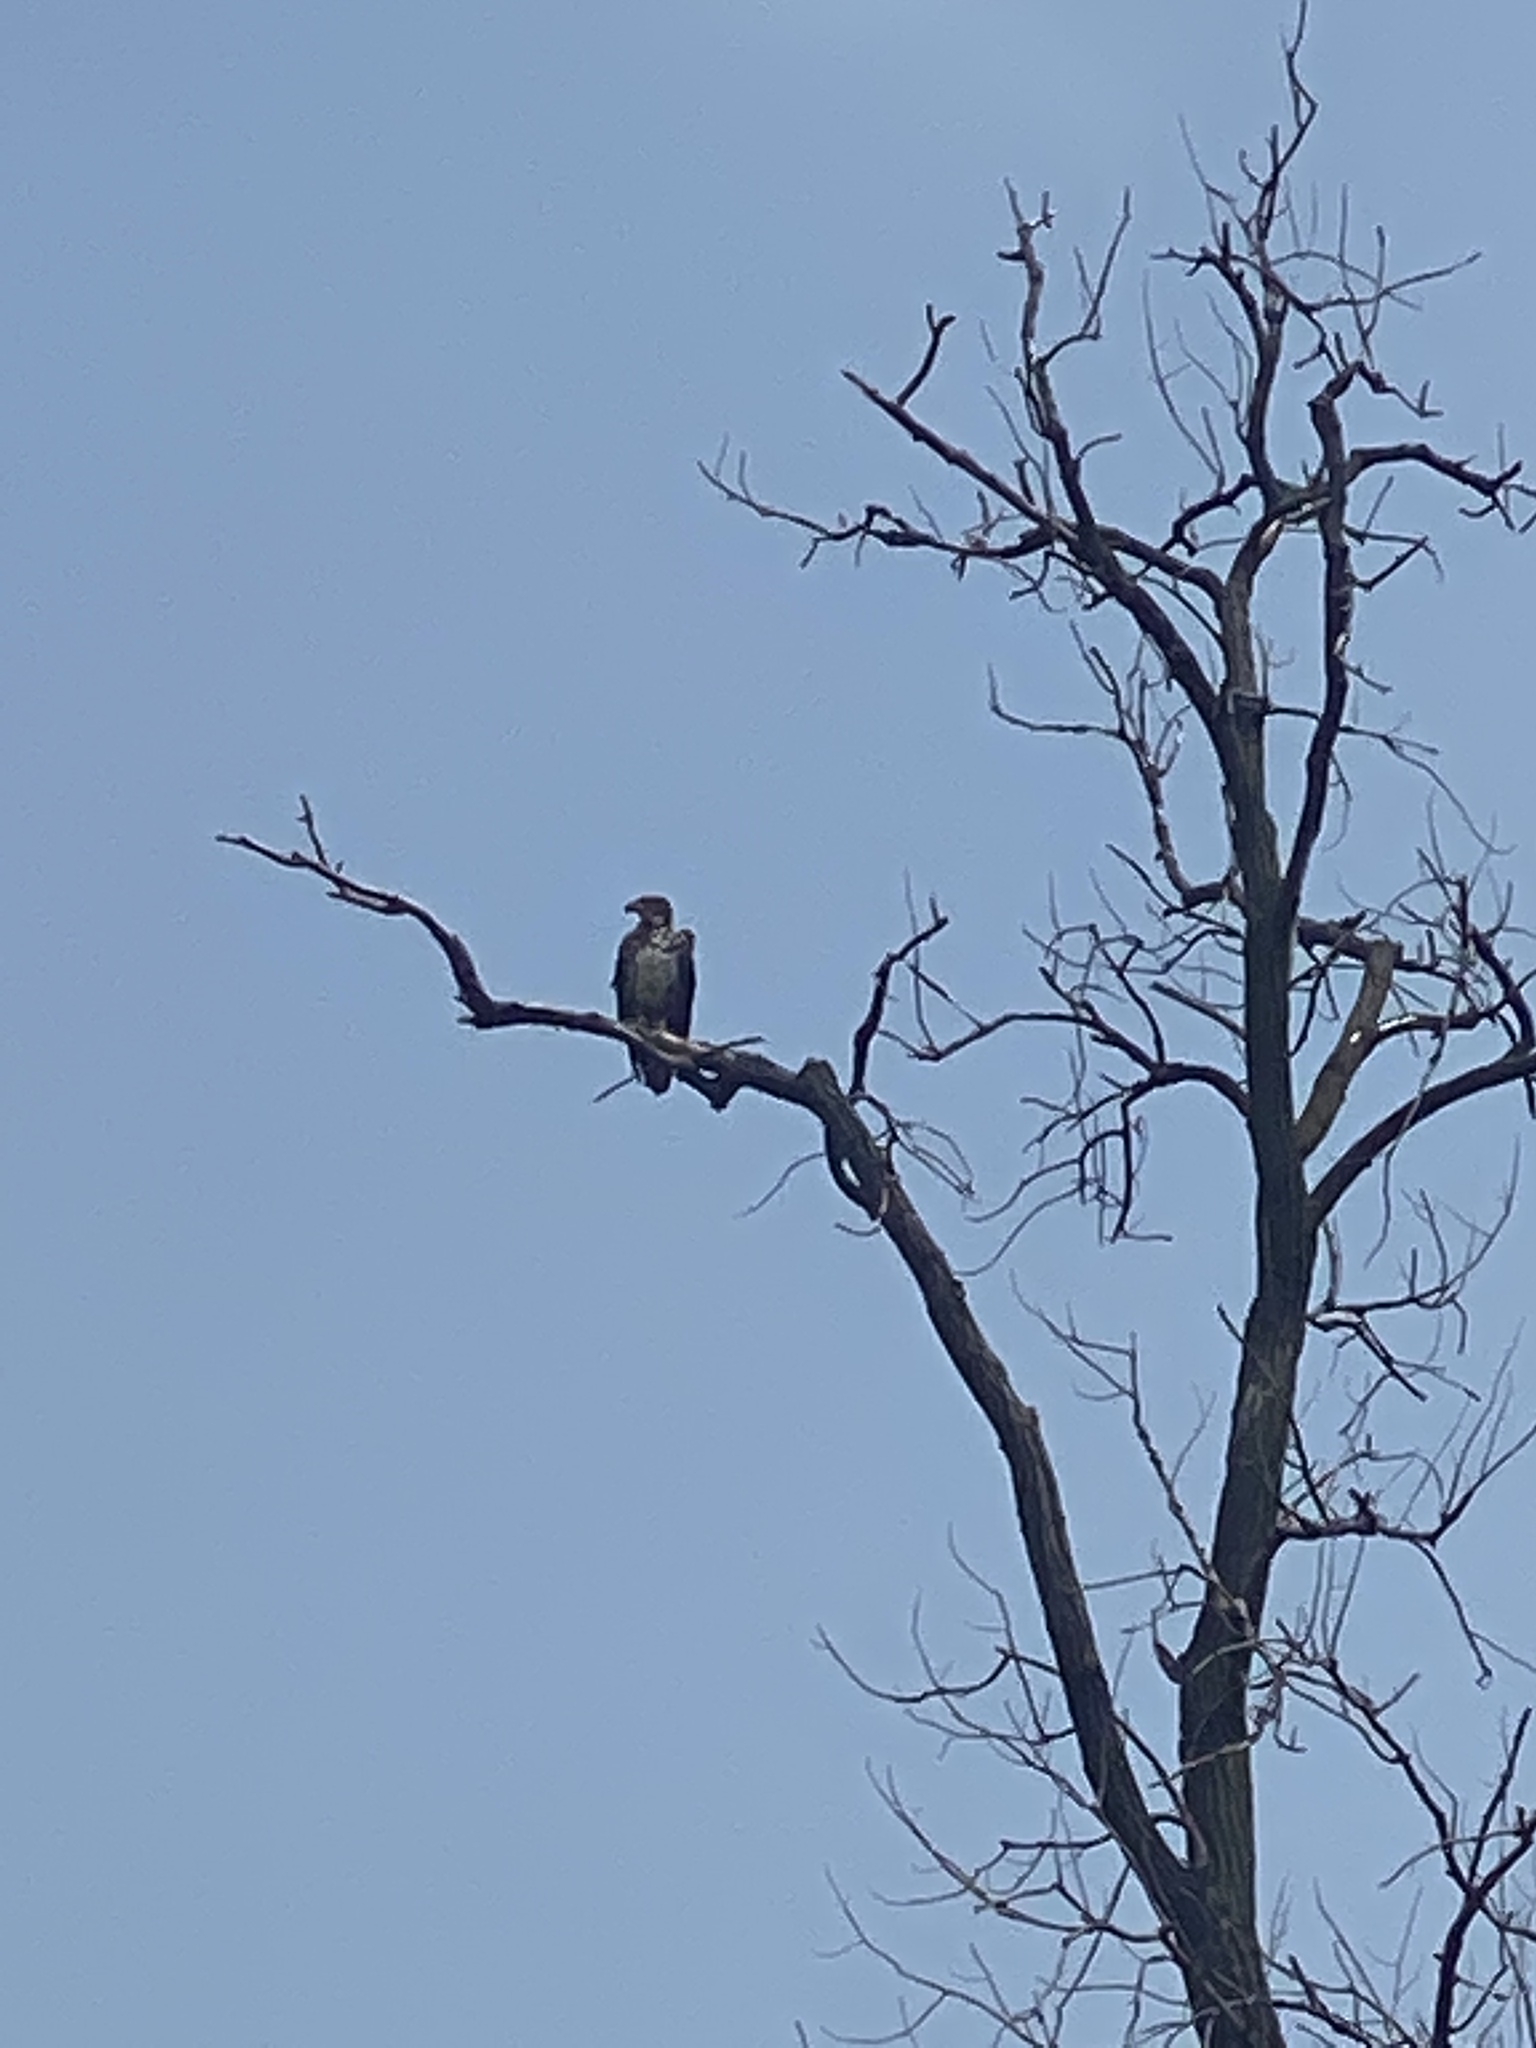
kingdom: Animalia
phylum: Chordata
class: Aves
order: Accipitriformes
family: Accipitridae
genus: Haliaeetus
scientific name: Haliaeetus leucocephalus
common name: Bald eagle
